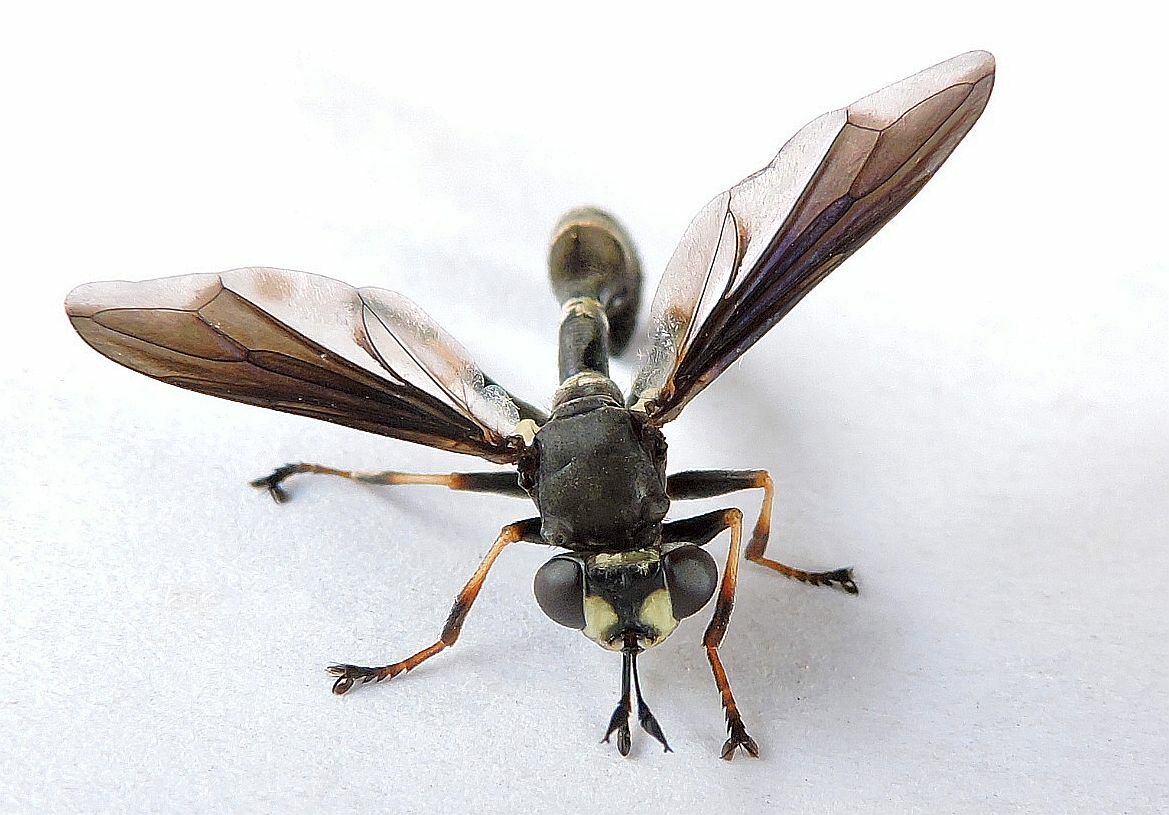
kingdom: Animalia
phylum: Arthropoda
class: Insecta
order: Diptera
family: Conopidae
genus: Physocephala
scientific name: Physocephala floridana
